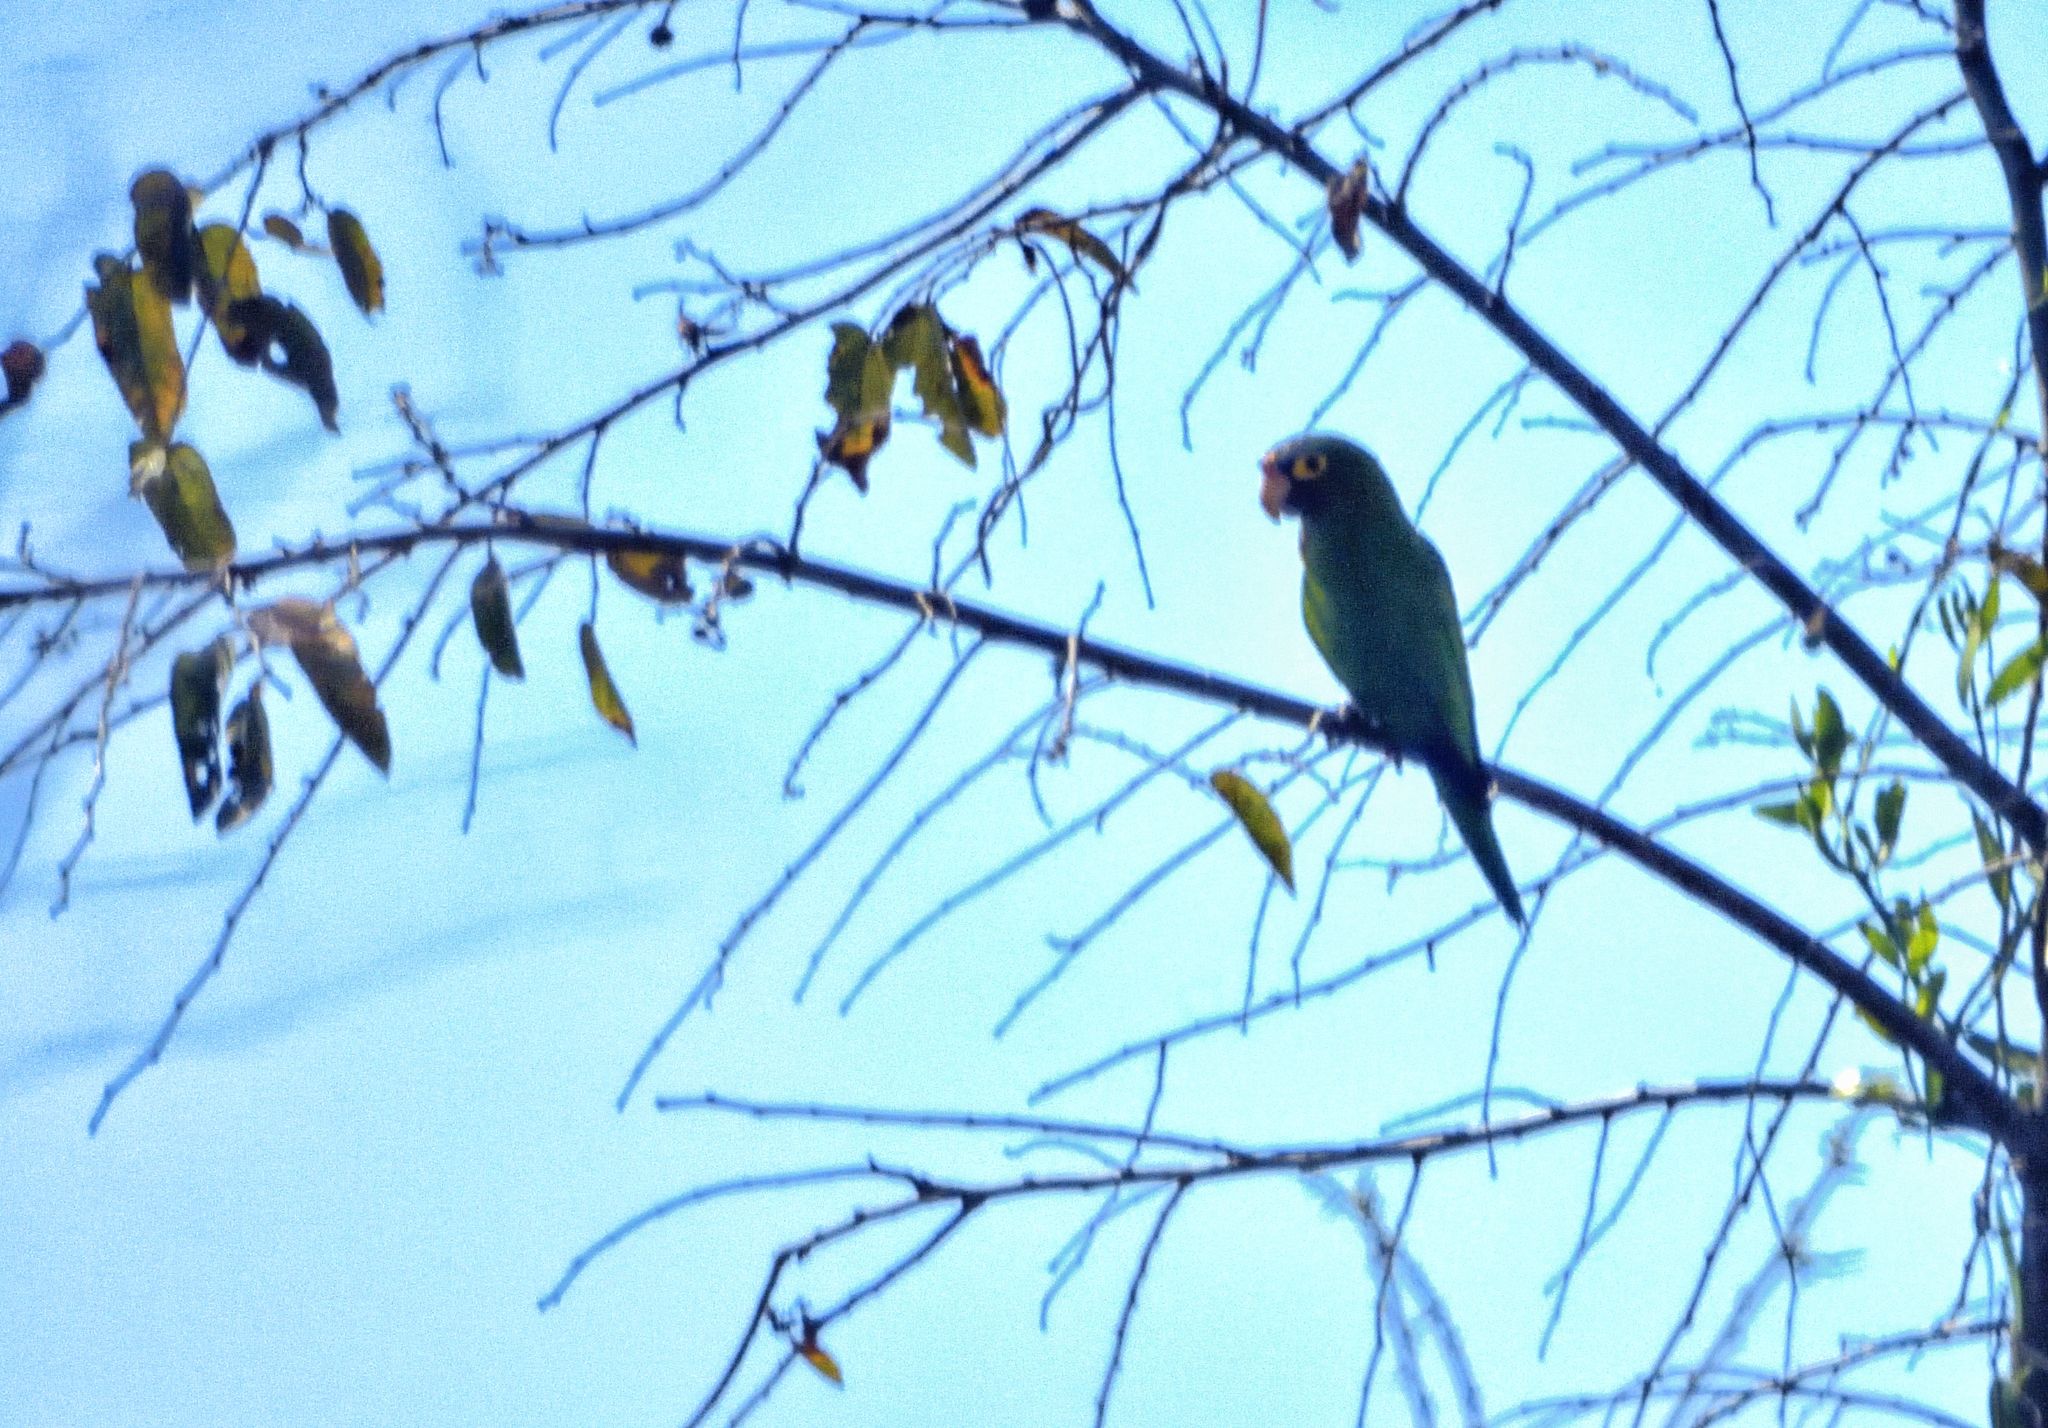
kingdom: Animalia
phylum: Chordata
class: Aves
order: Psittaciformes
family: Psittacidae
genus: Aratinga
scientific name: Aratinga canicularis
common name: Orange-fronted parakeet
